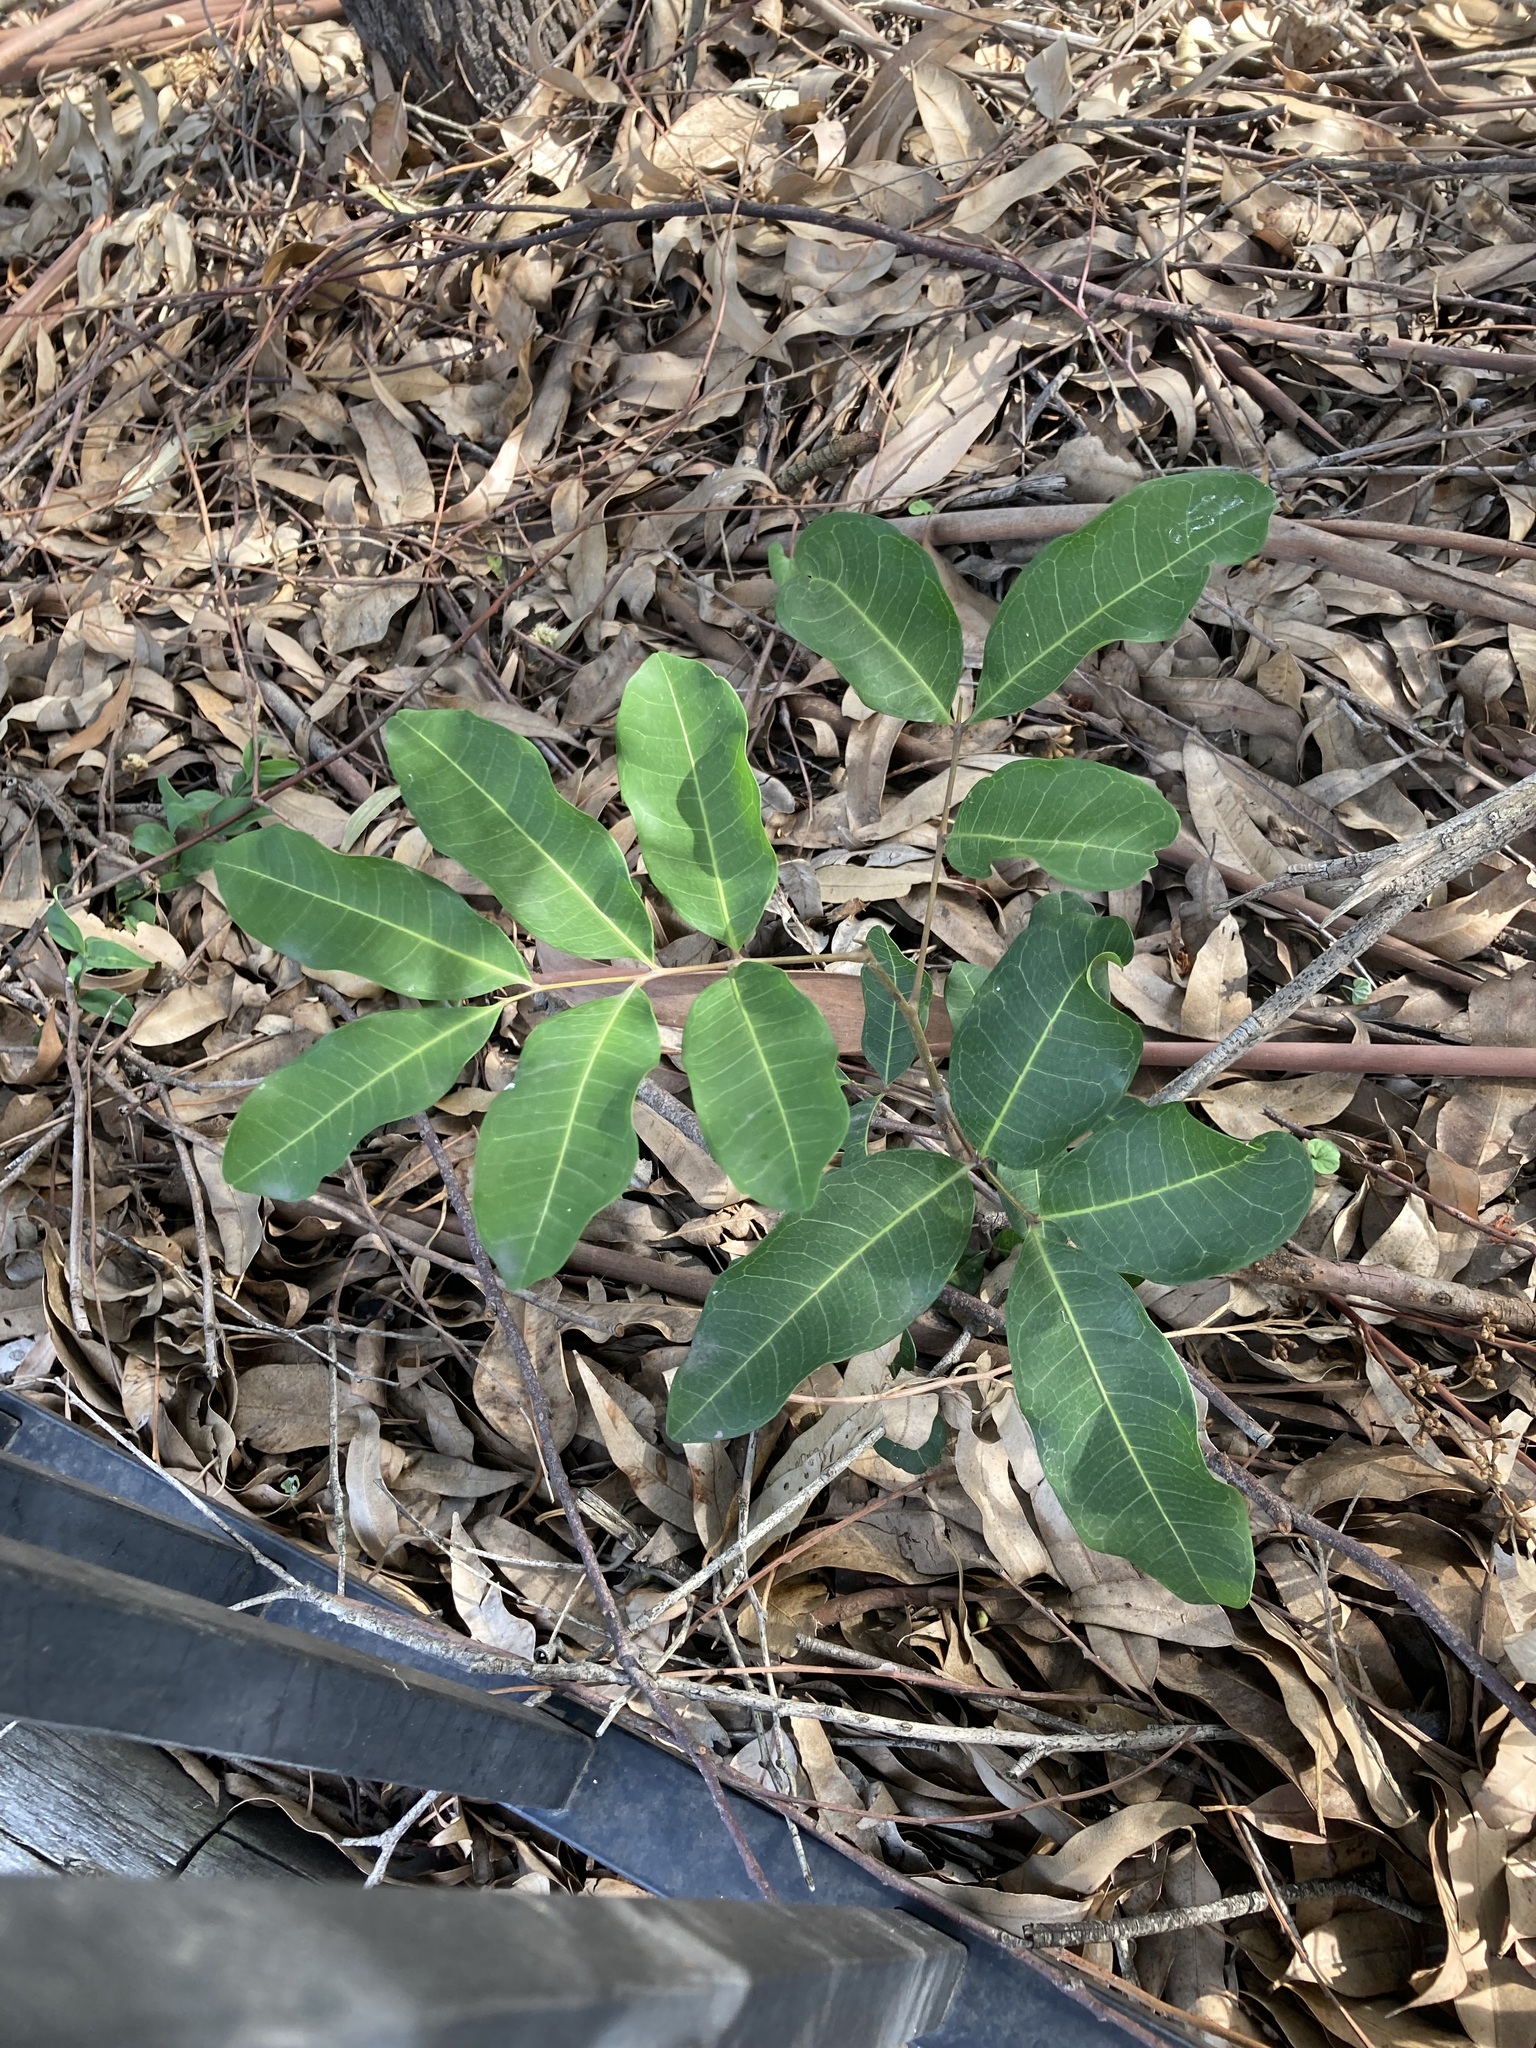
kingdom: Plantae
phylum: Tracheophyta
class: Magnoliopsida
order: Sapindales
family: Sapindaceae
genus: Cupaniopsis
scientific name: Cupaniopsis anacardioides
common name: Carrotwood
